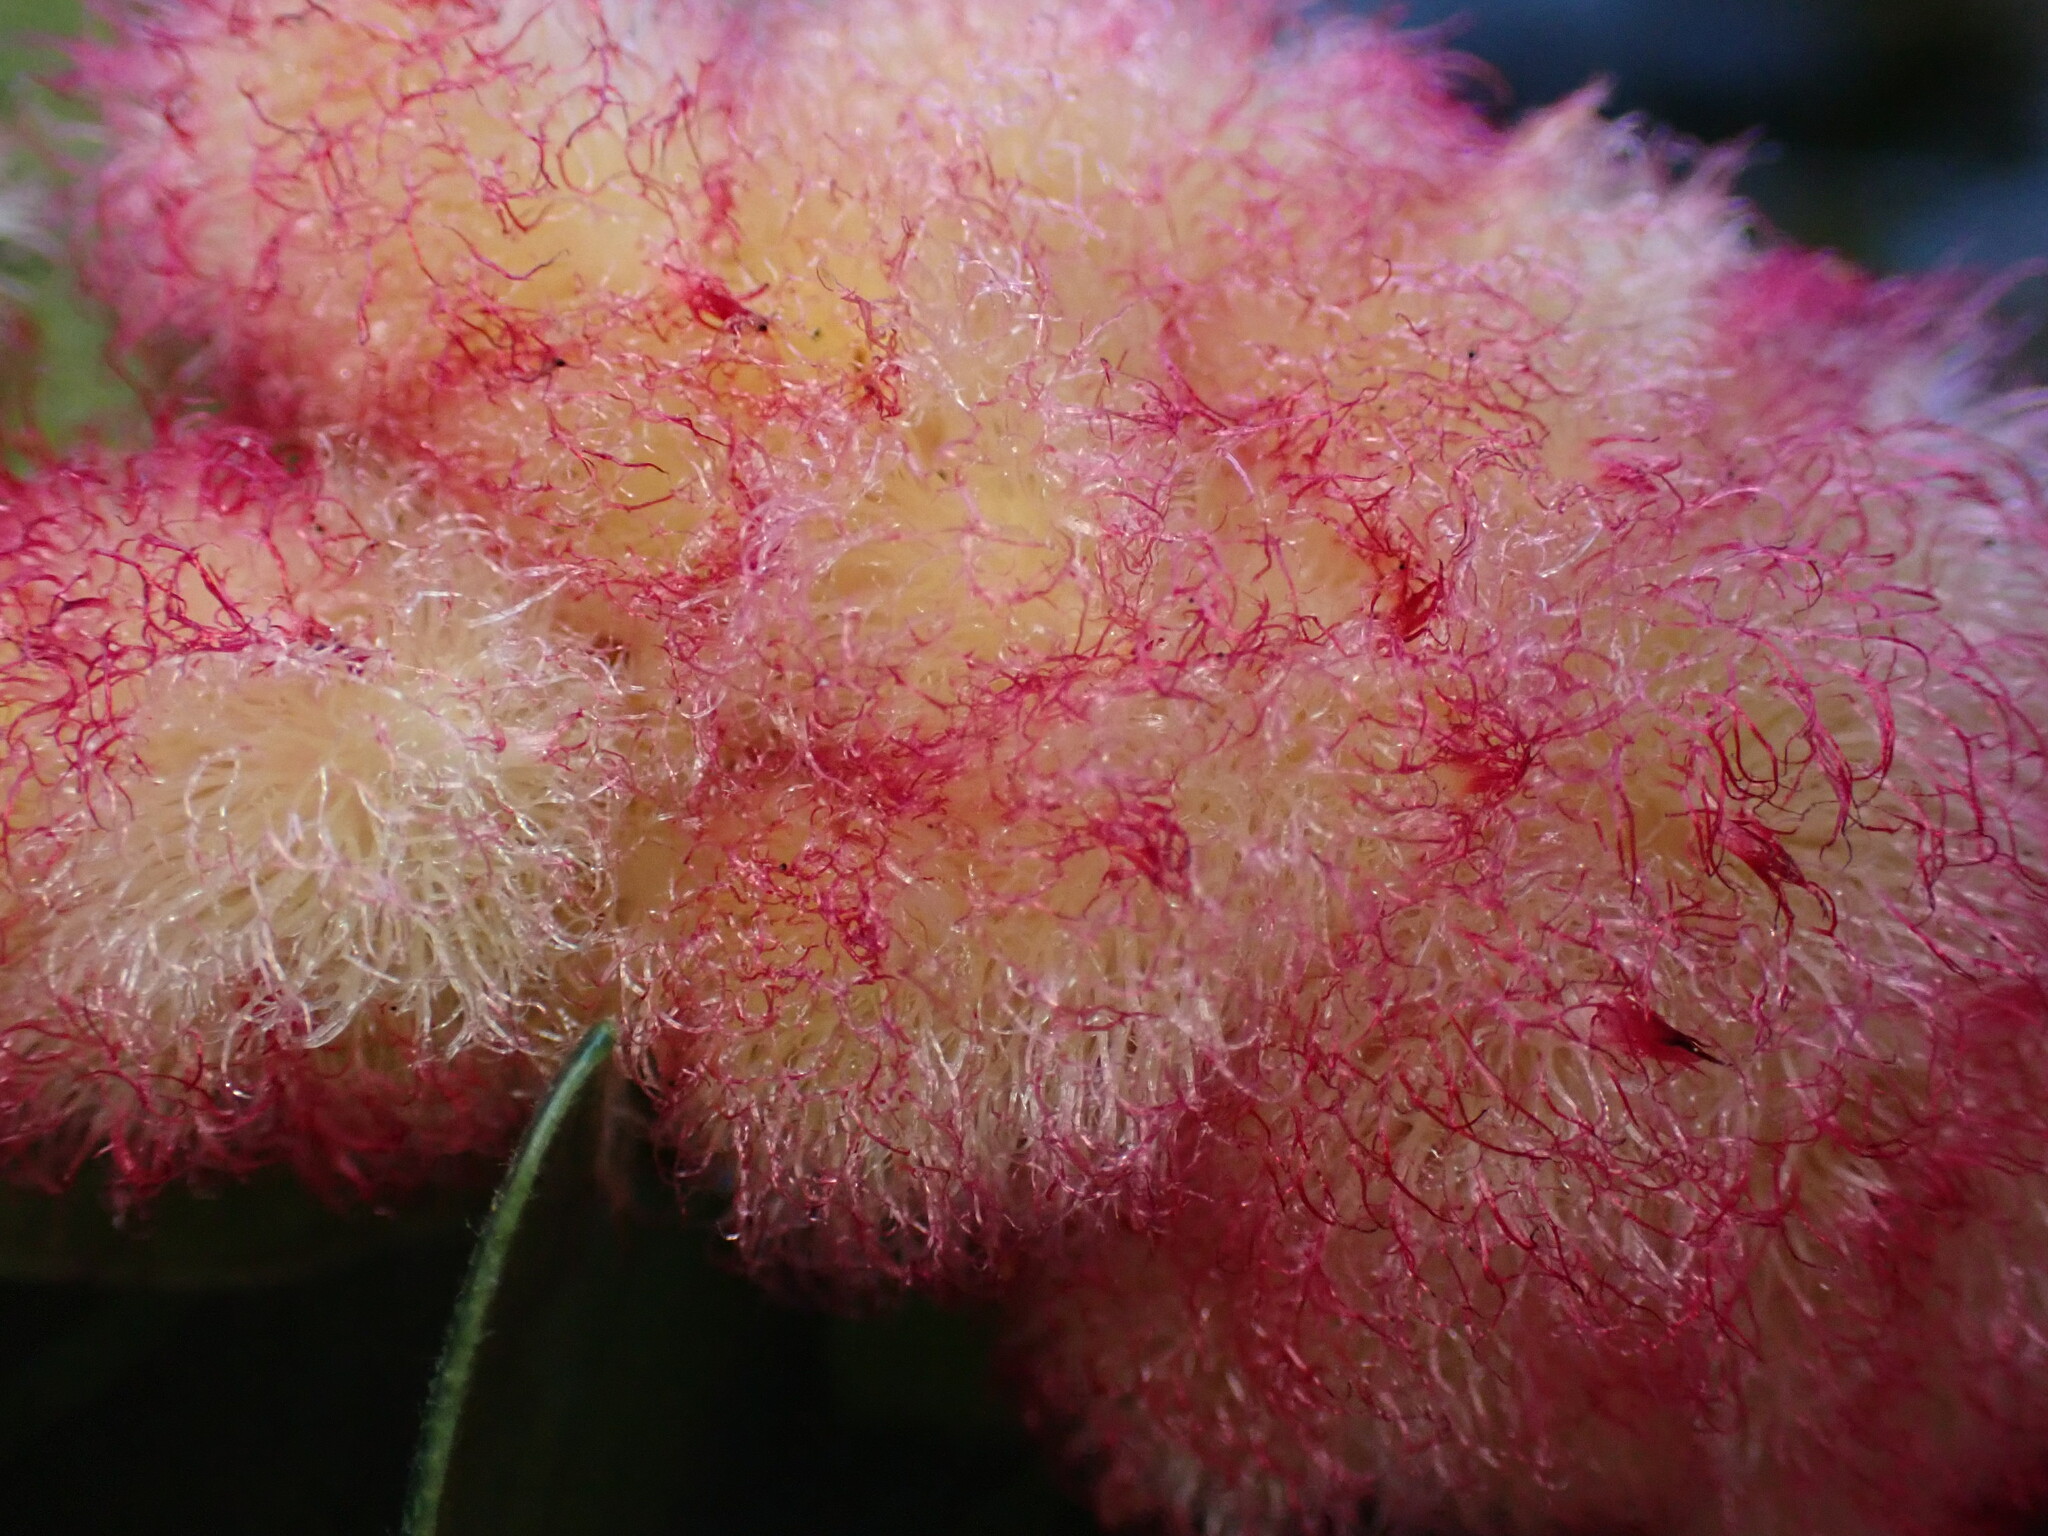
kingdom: Animalia
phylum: Arthropoda
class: Insecta
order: Hymenoptera
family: Cynipidae
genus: Andricus
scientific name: Andricus
